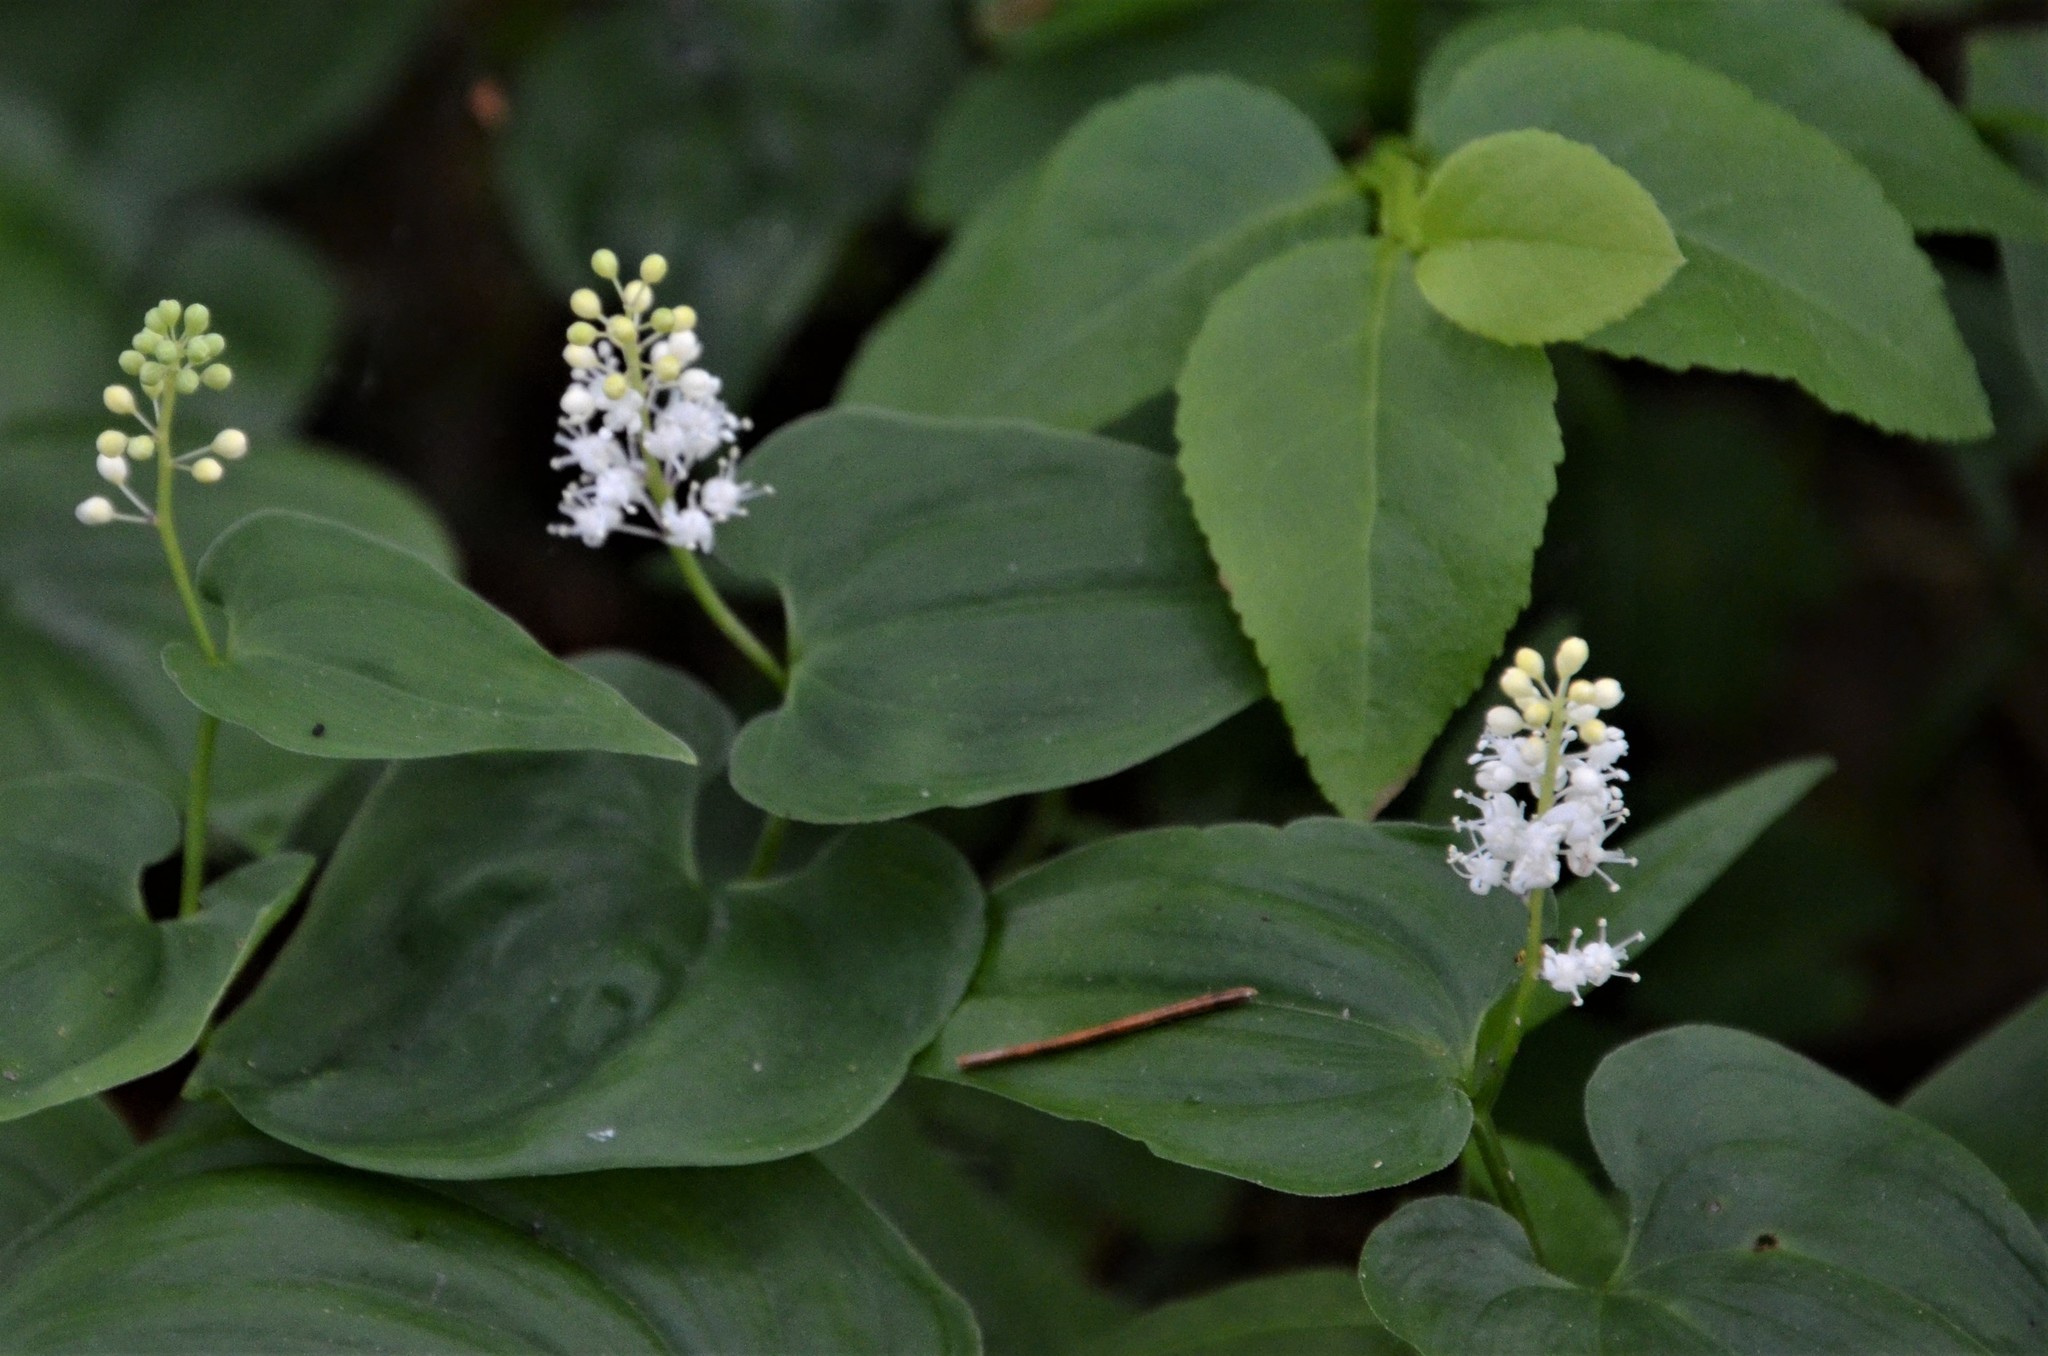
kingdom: Plantae
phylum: Tracheophyta
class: Liliopsida
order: Asparagales
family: Asparagaceae
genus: Maianthemum
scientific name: Maianthemum bifolium
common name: May lily
